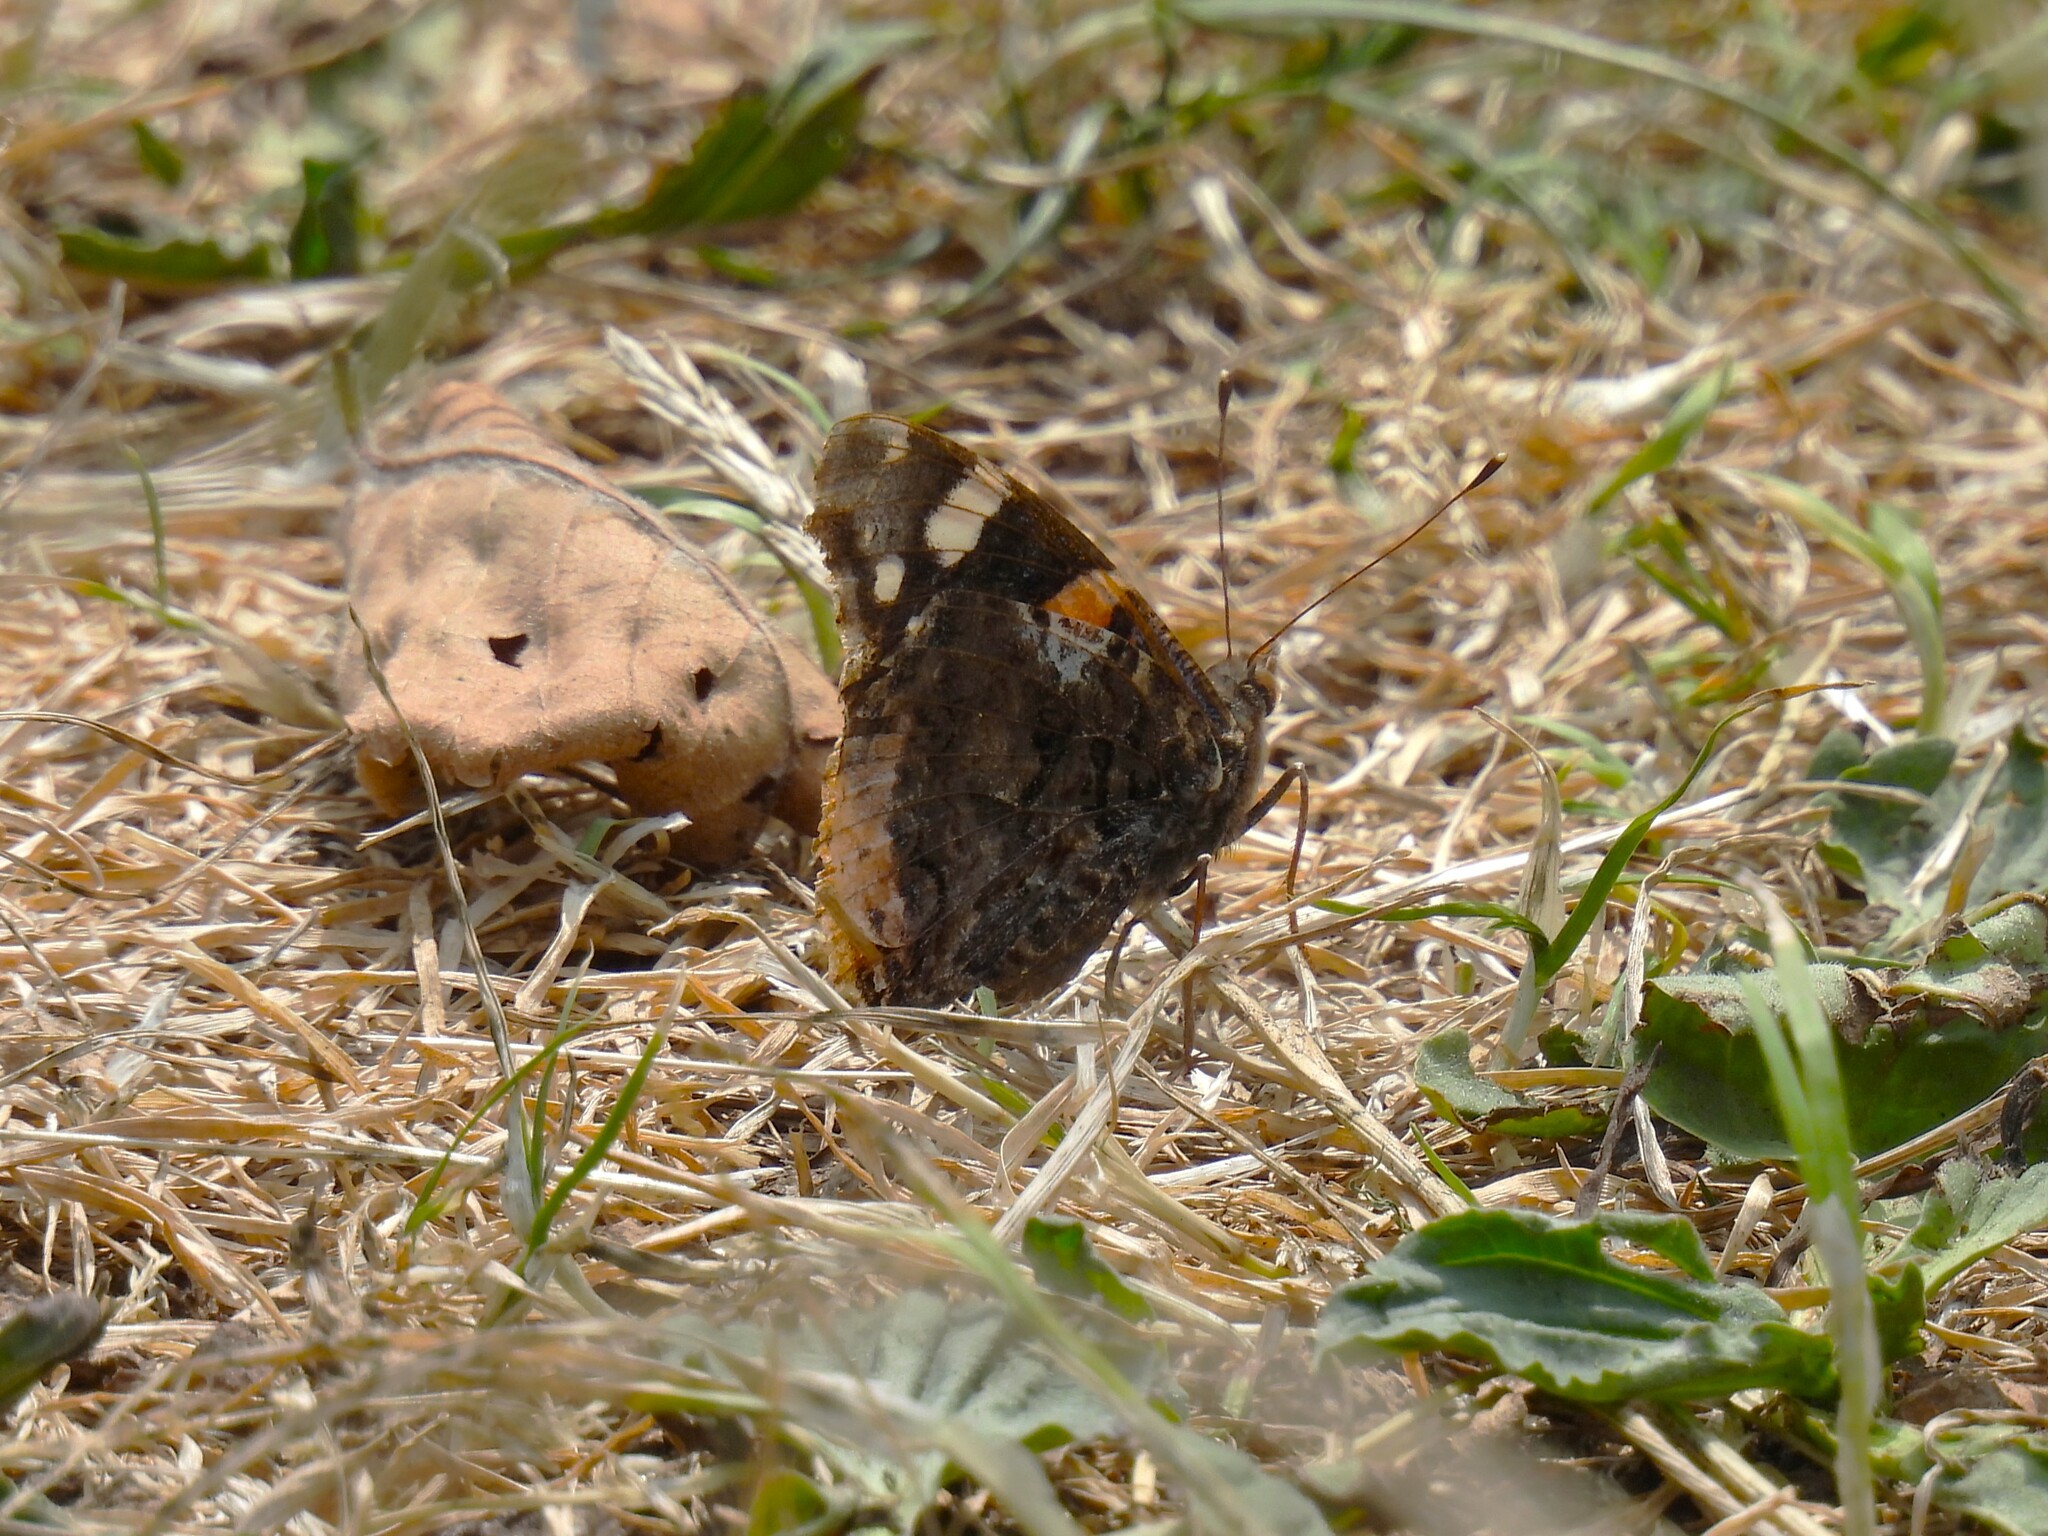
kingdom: Animalia
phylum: Arthropoda
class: Insecta
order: Lepidoptera
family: Nymphalidae
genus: Vanessa
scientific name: Vanessa atalanta
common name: Red admiral
